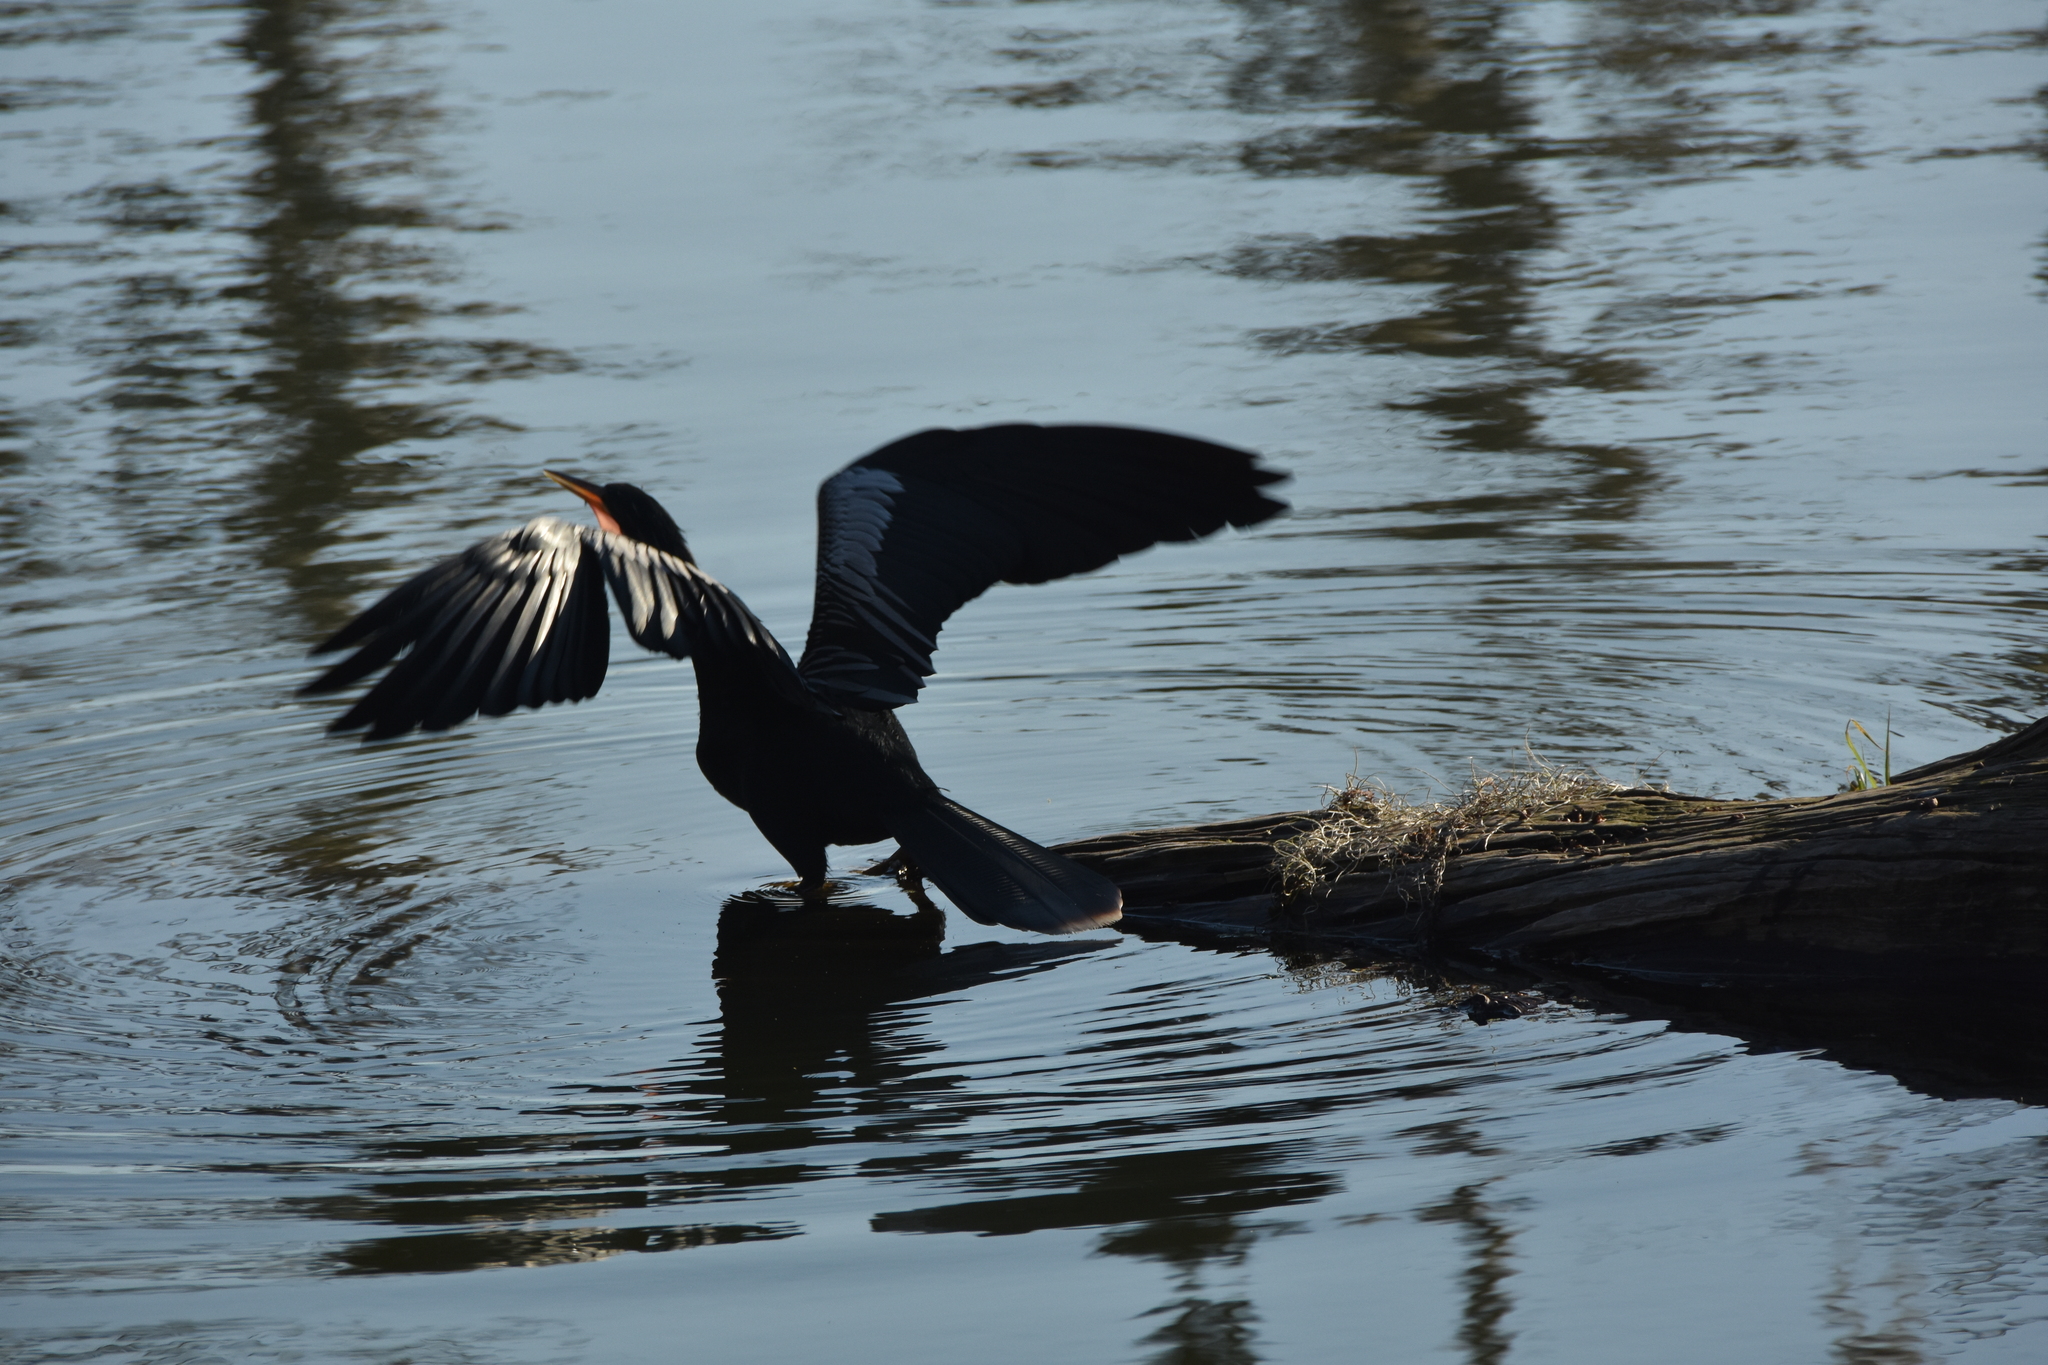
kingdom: Animalia
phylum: Chordata
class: Aves
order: Suliformes
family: Anhingidae
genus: Anhinga
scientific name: Anhinga anhinga
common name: Anhinga
